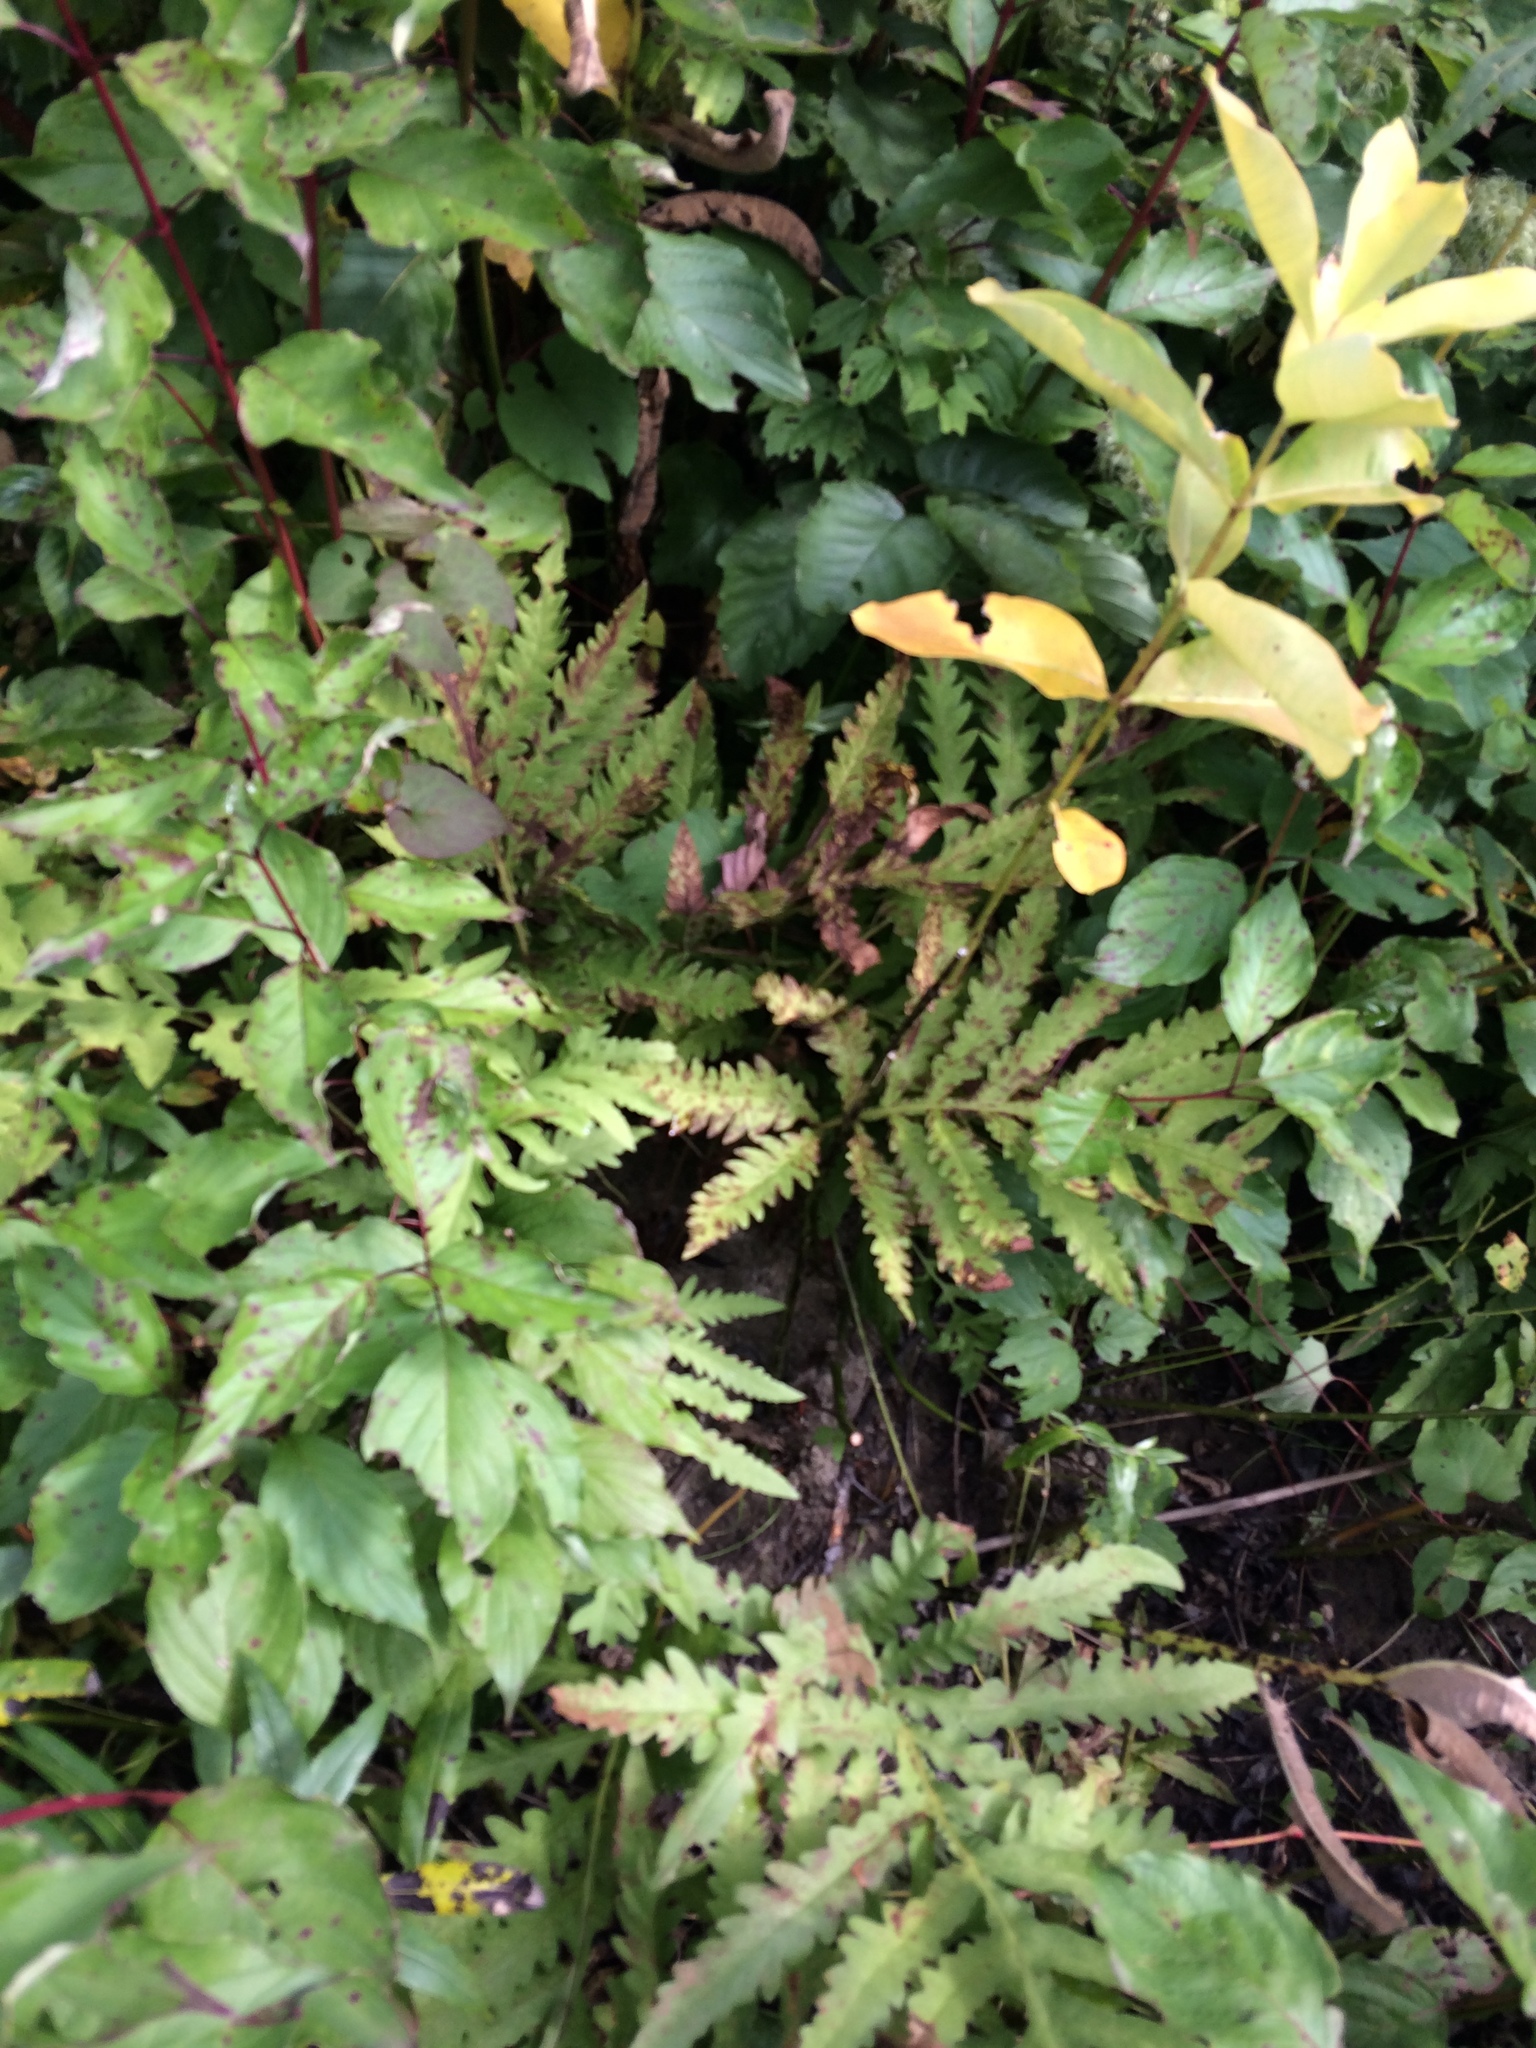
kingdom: Plantae
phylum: Tracheophyta
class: Polypodiopsida
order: Polypodiales
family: Onocleaceae
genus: Onoclea
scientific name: Onoclea sensibilis
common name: Sensitive fern
